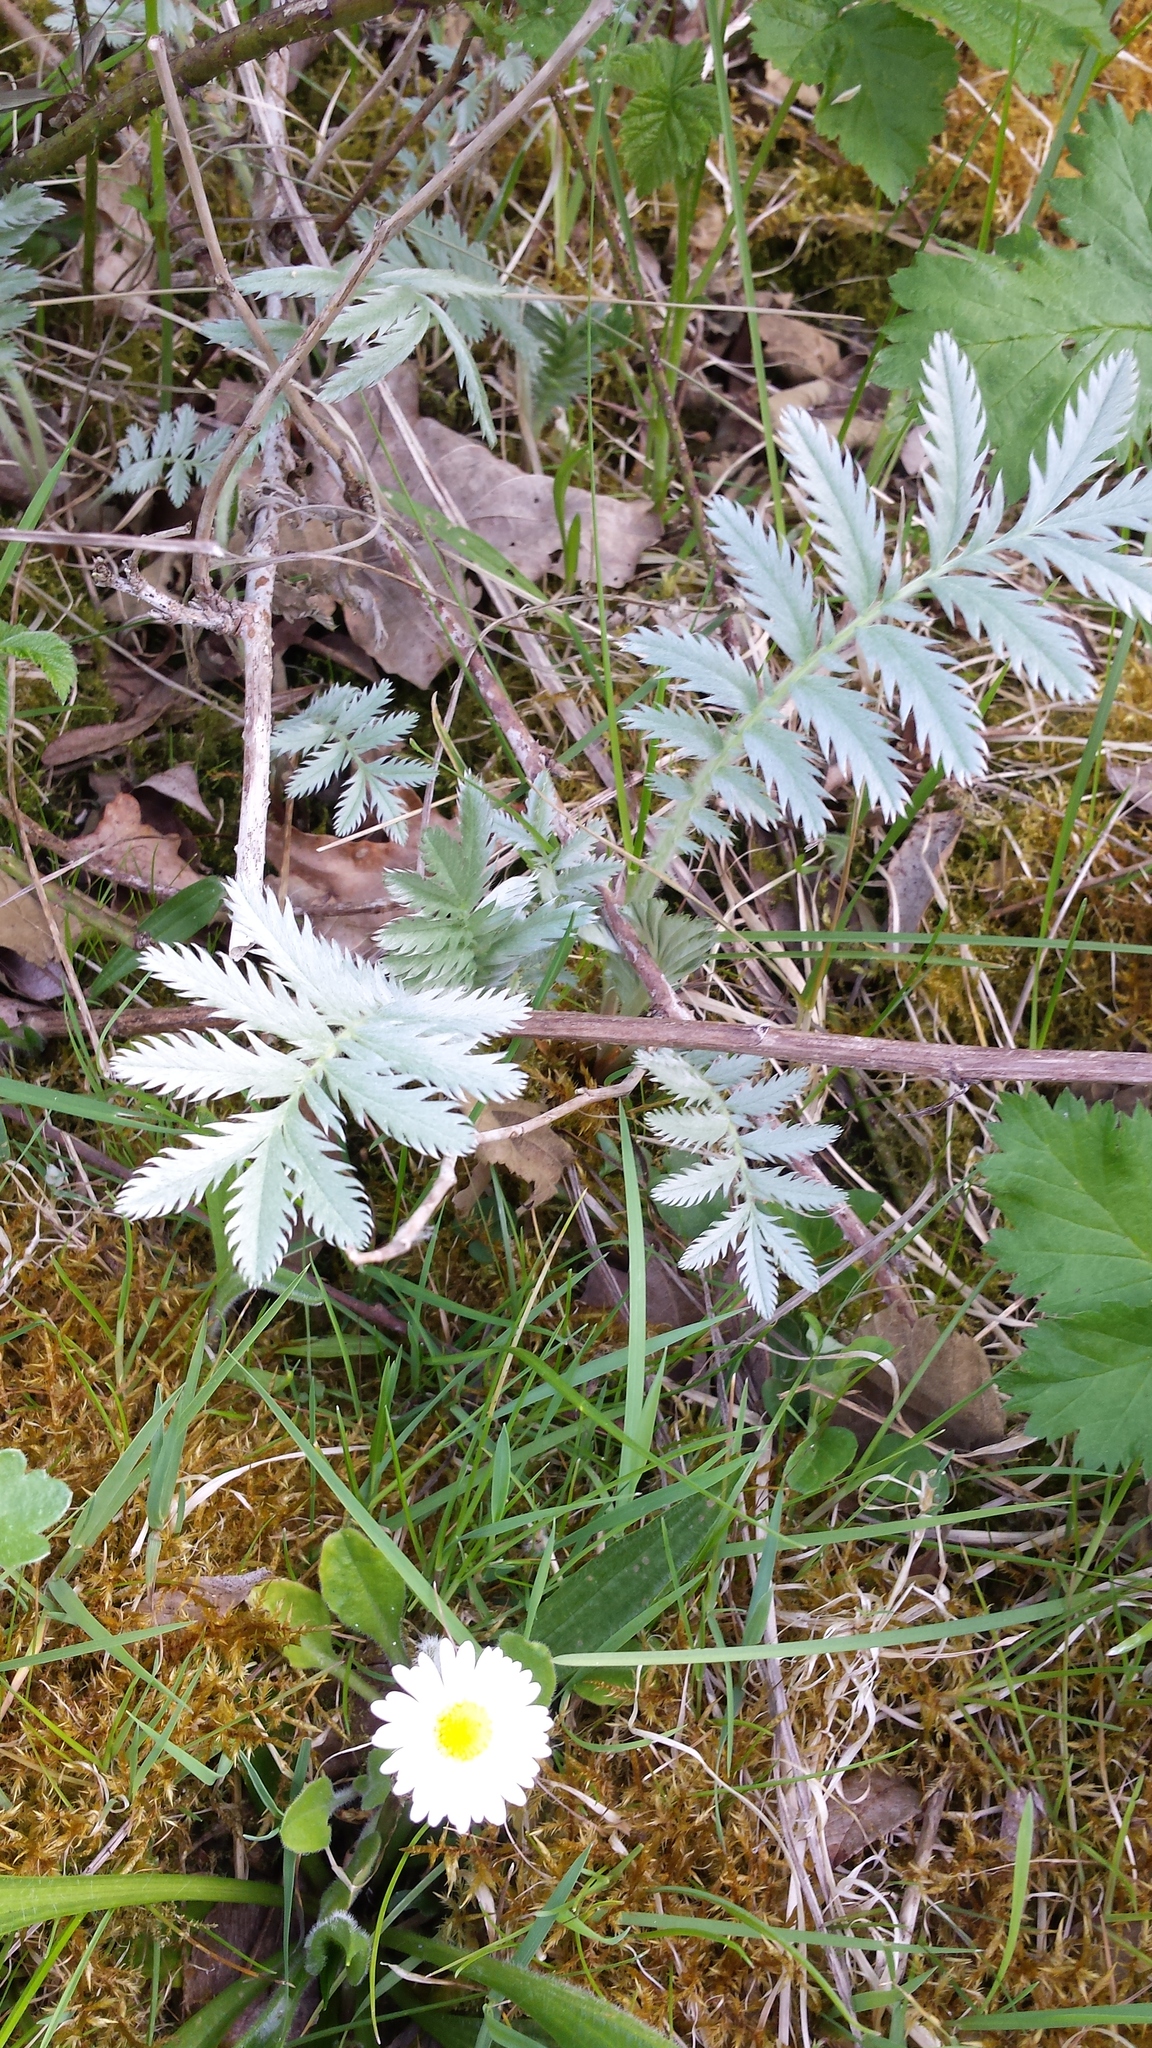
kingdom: Plantae
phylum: Tracheophyta
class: Magnoliopsida
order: Rosales
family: Rosaceae
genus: Argentina
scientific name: Argentina anserina
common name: Common silverweed
